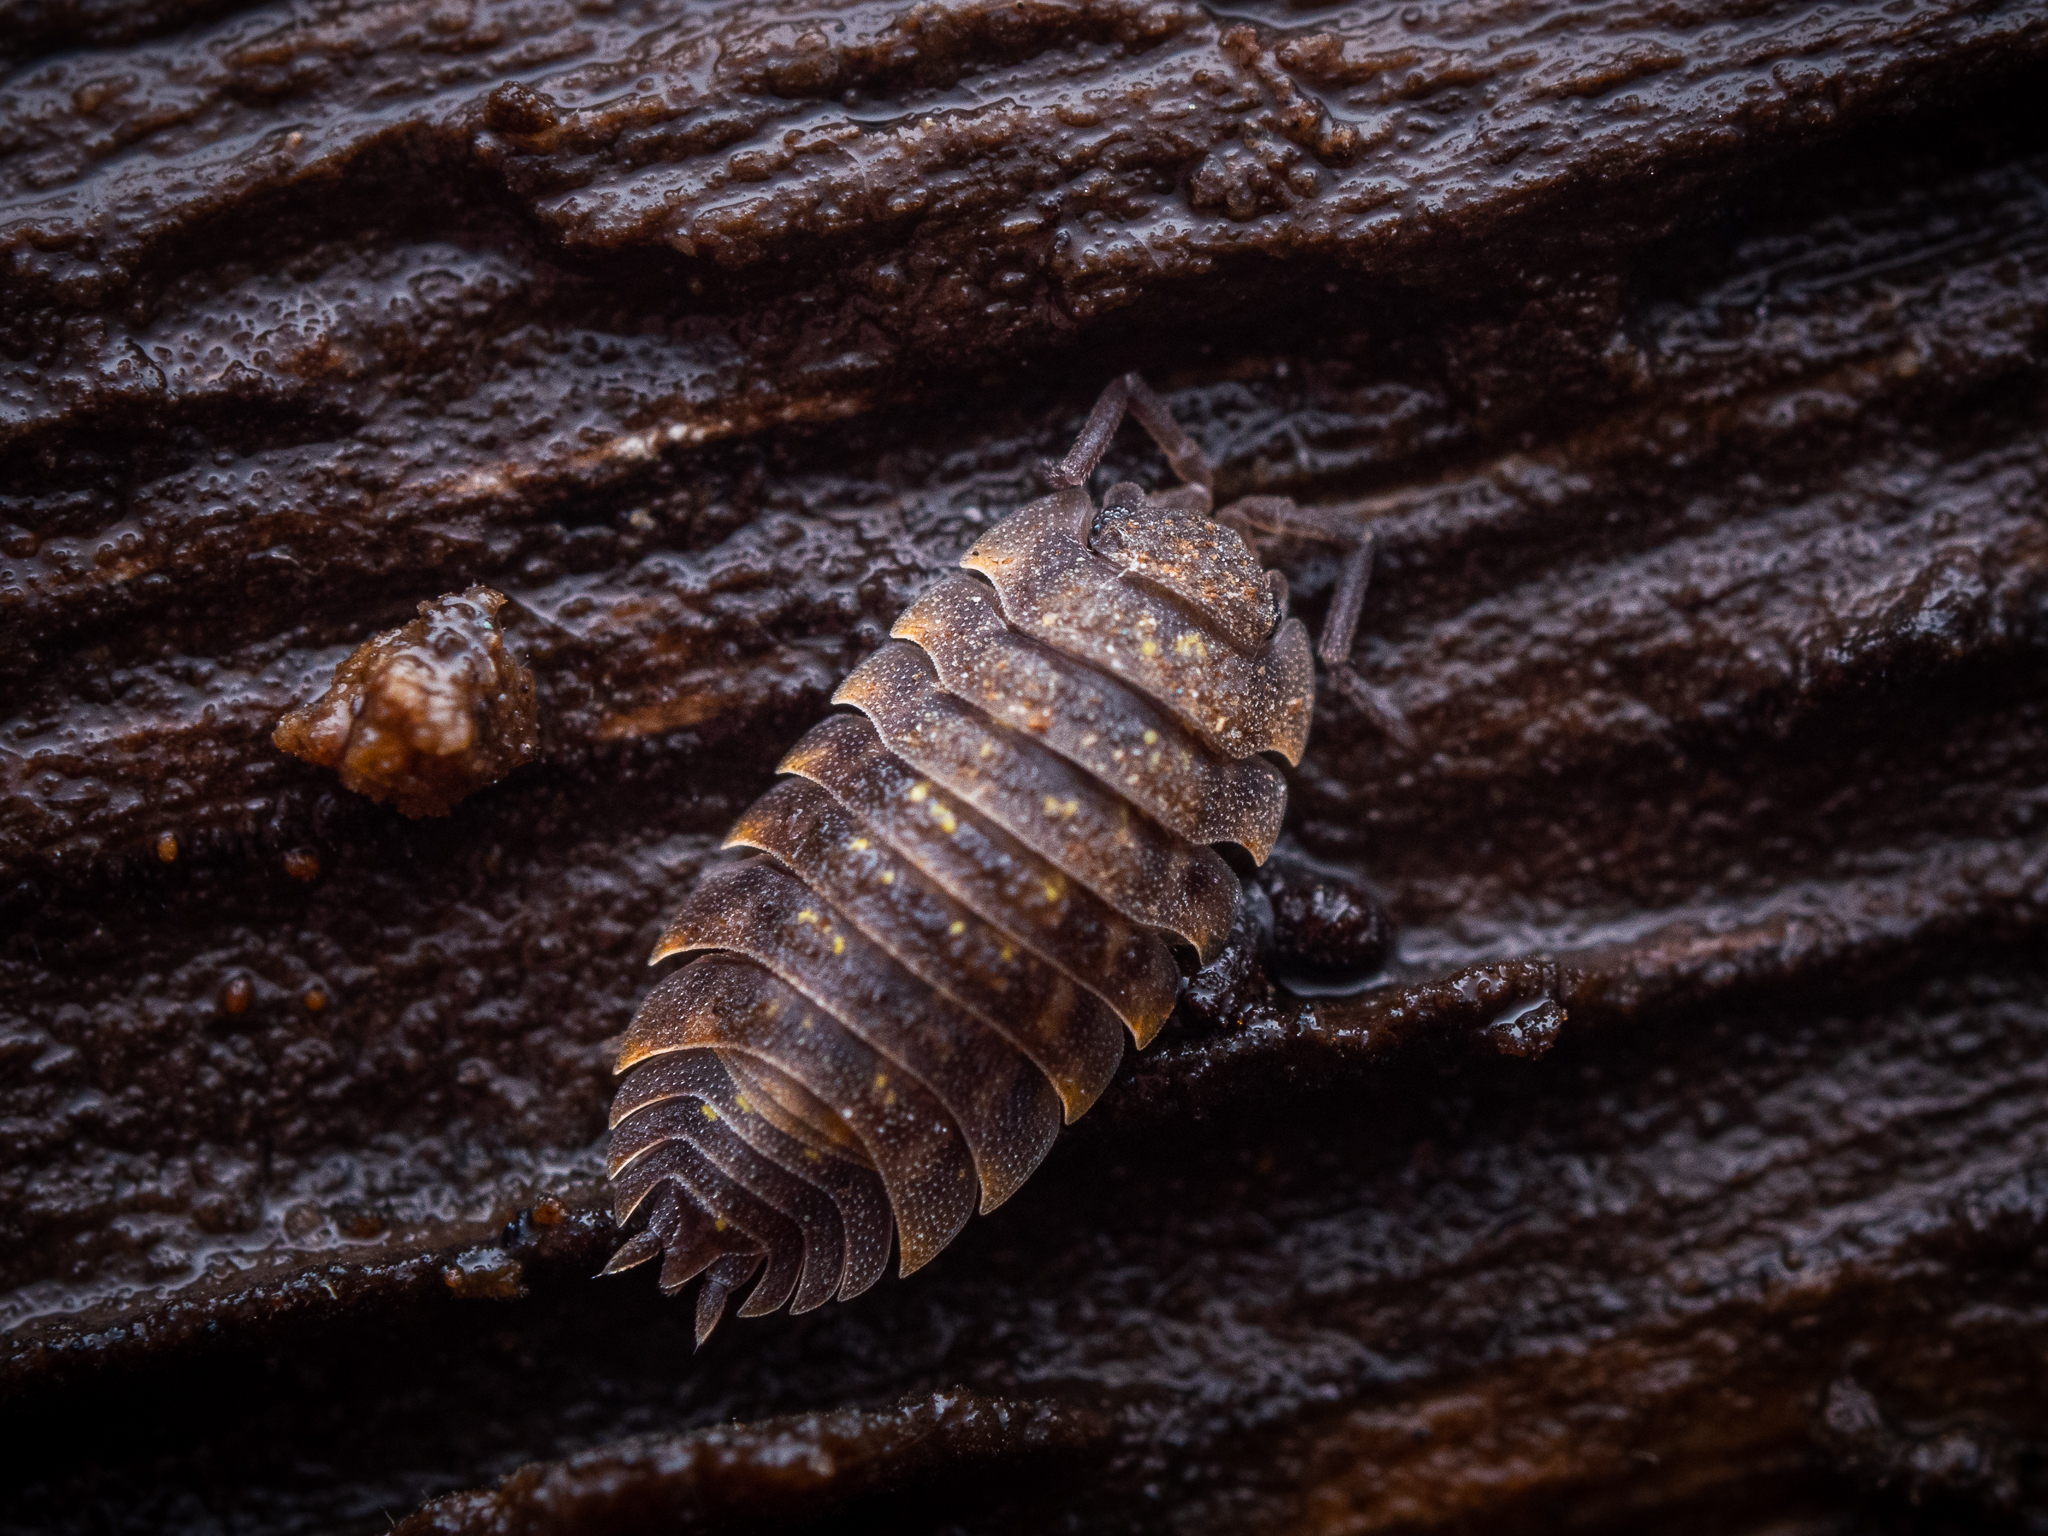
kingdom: Animalia
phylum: Arthropoda
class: Malacostraca
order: Isopoda
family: Oniscidae
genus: Oniscus
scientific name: Oniscus asellus
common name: Common shiny woodlouse
